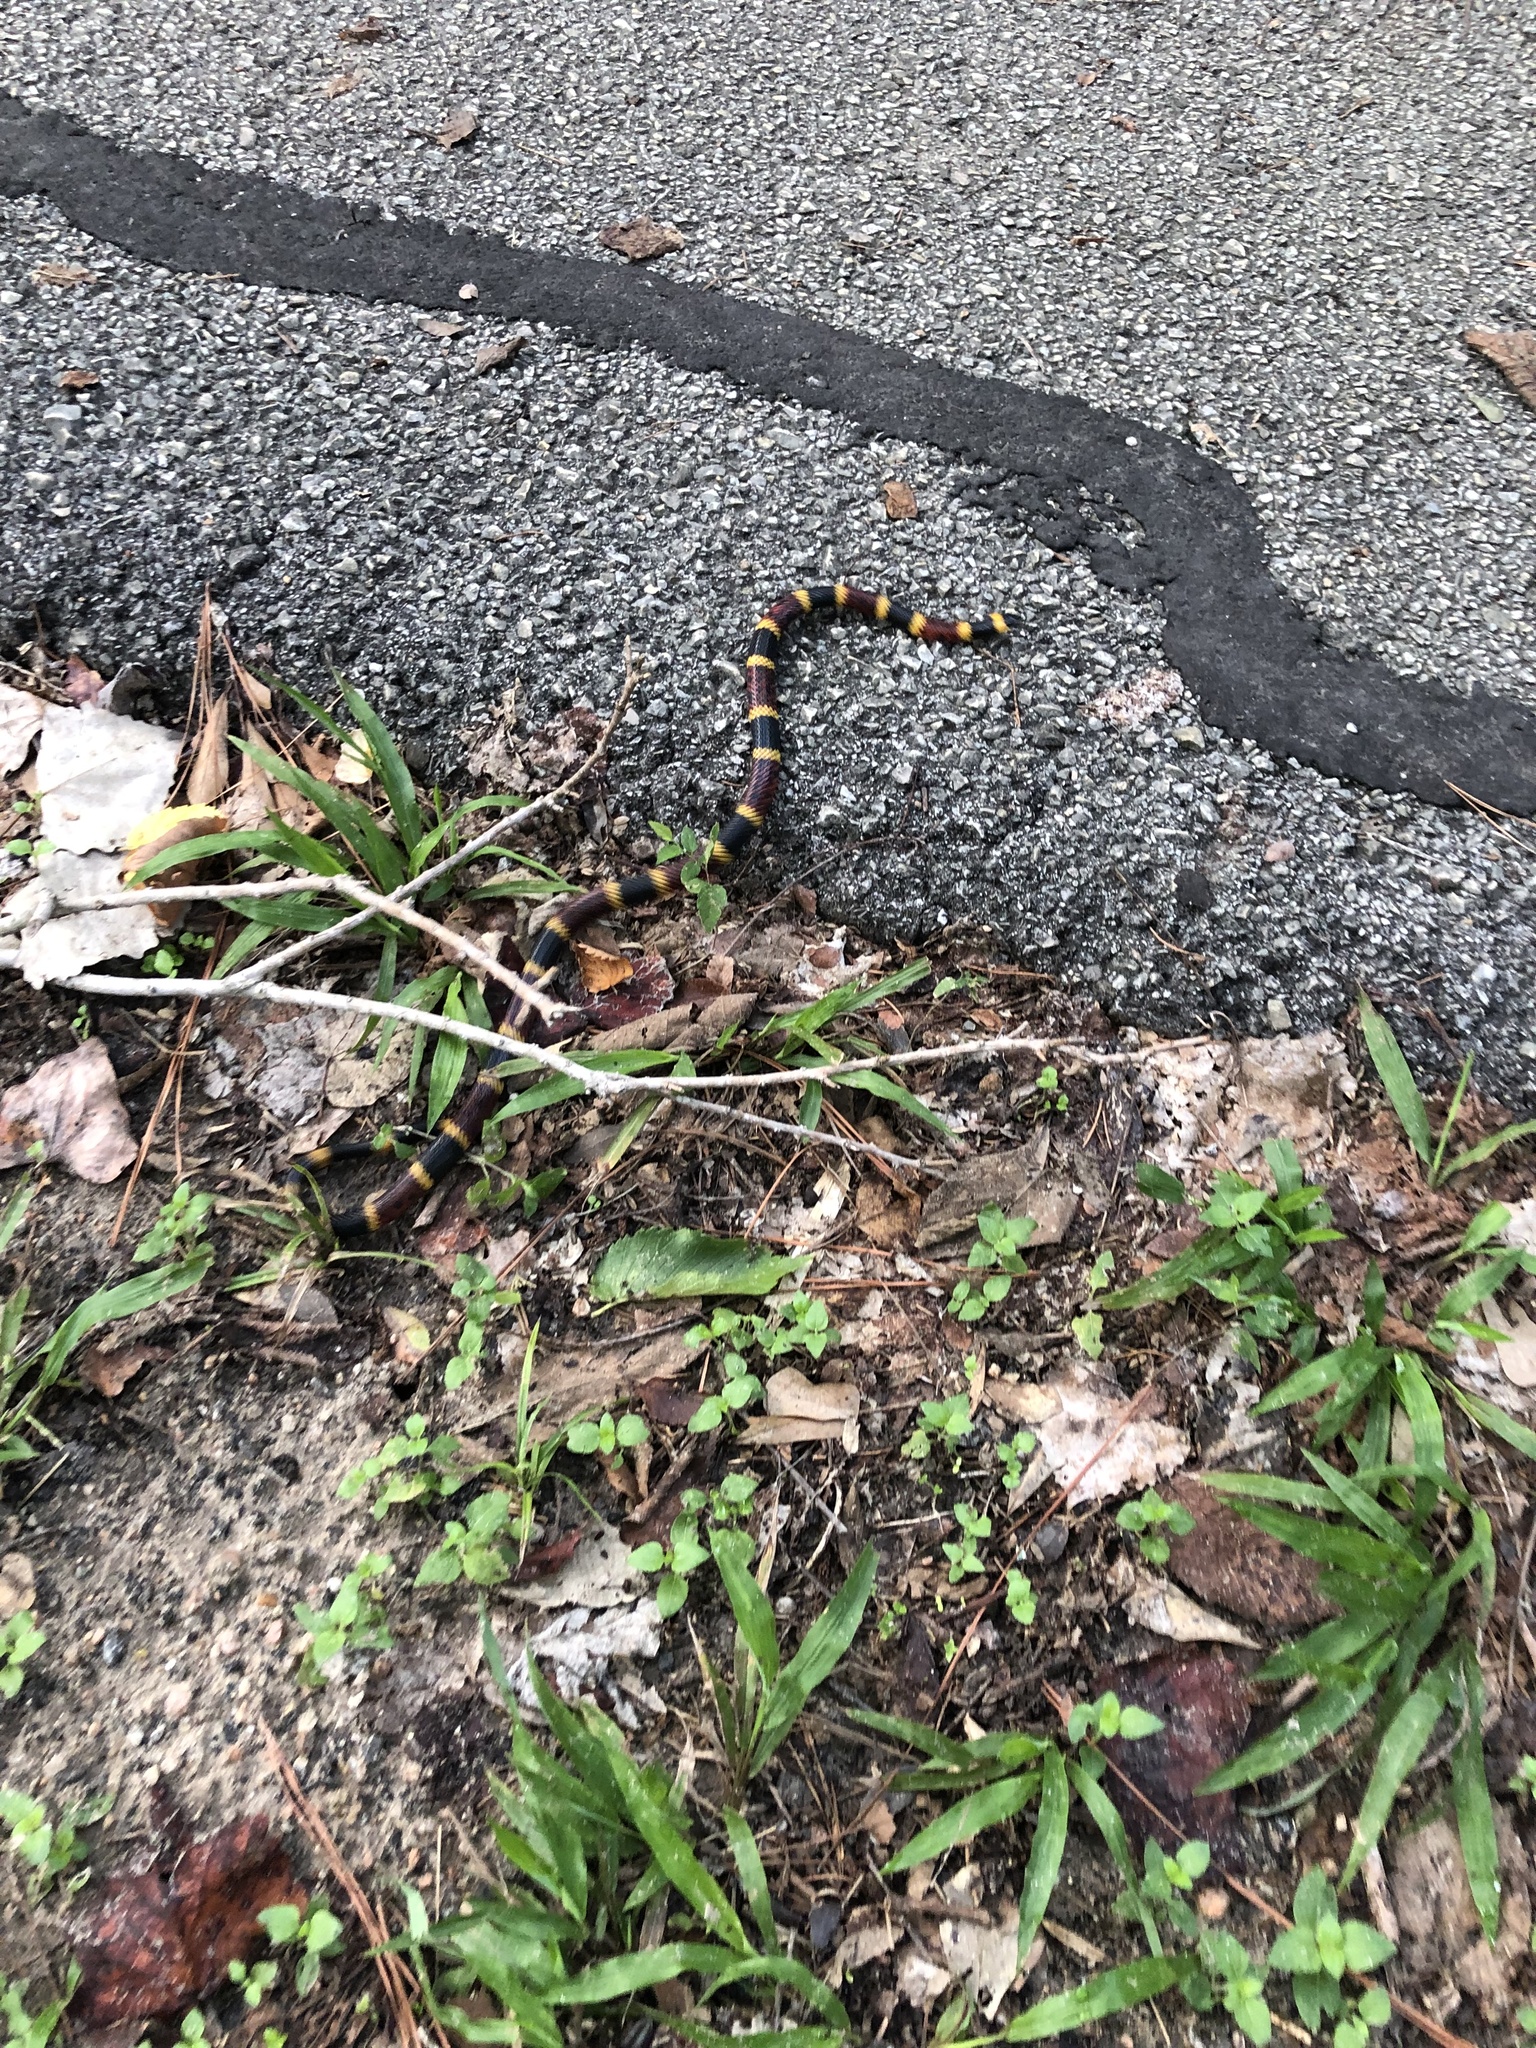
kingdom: Animalia
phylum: Chordata
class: Squamata
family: Elapidae
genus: Micrurus
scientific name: Micrurus tener
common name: Texas coral snake
